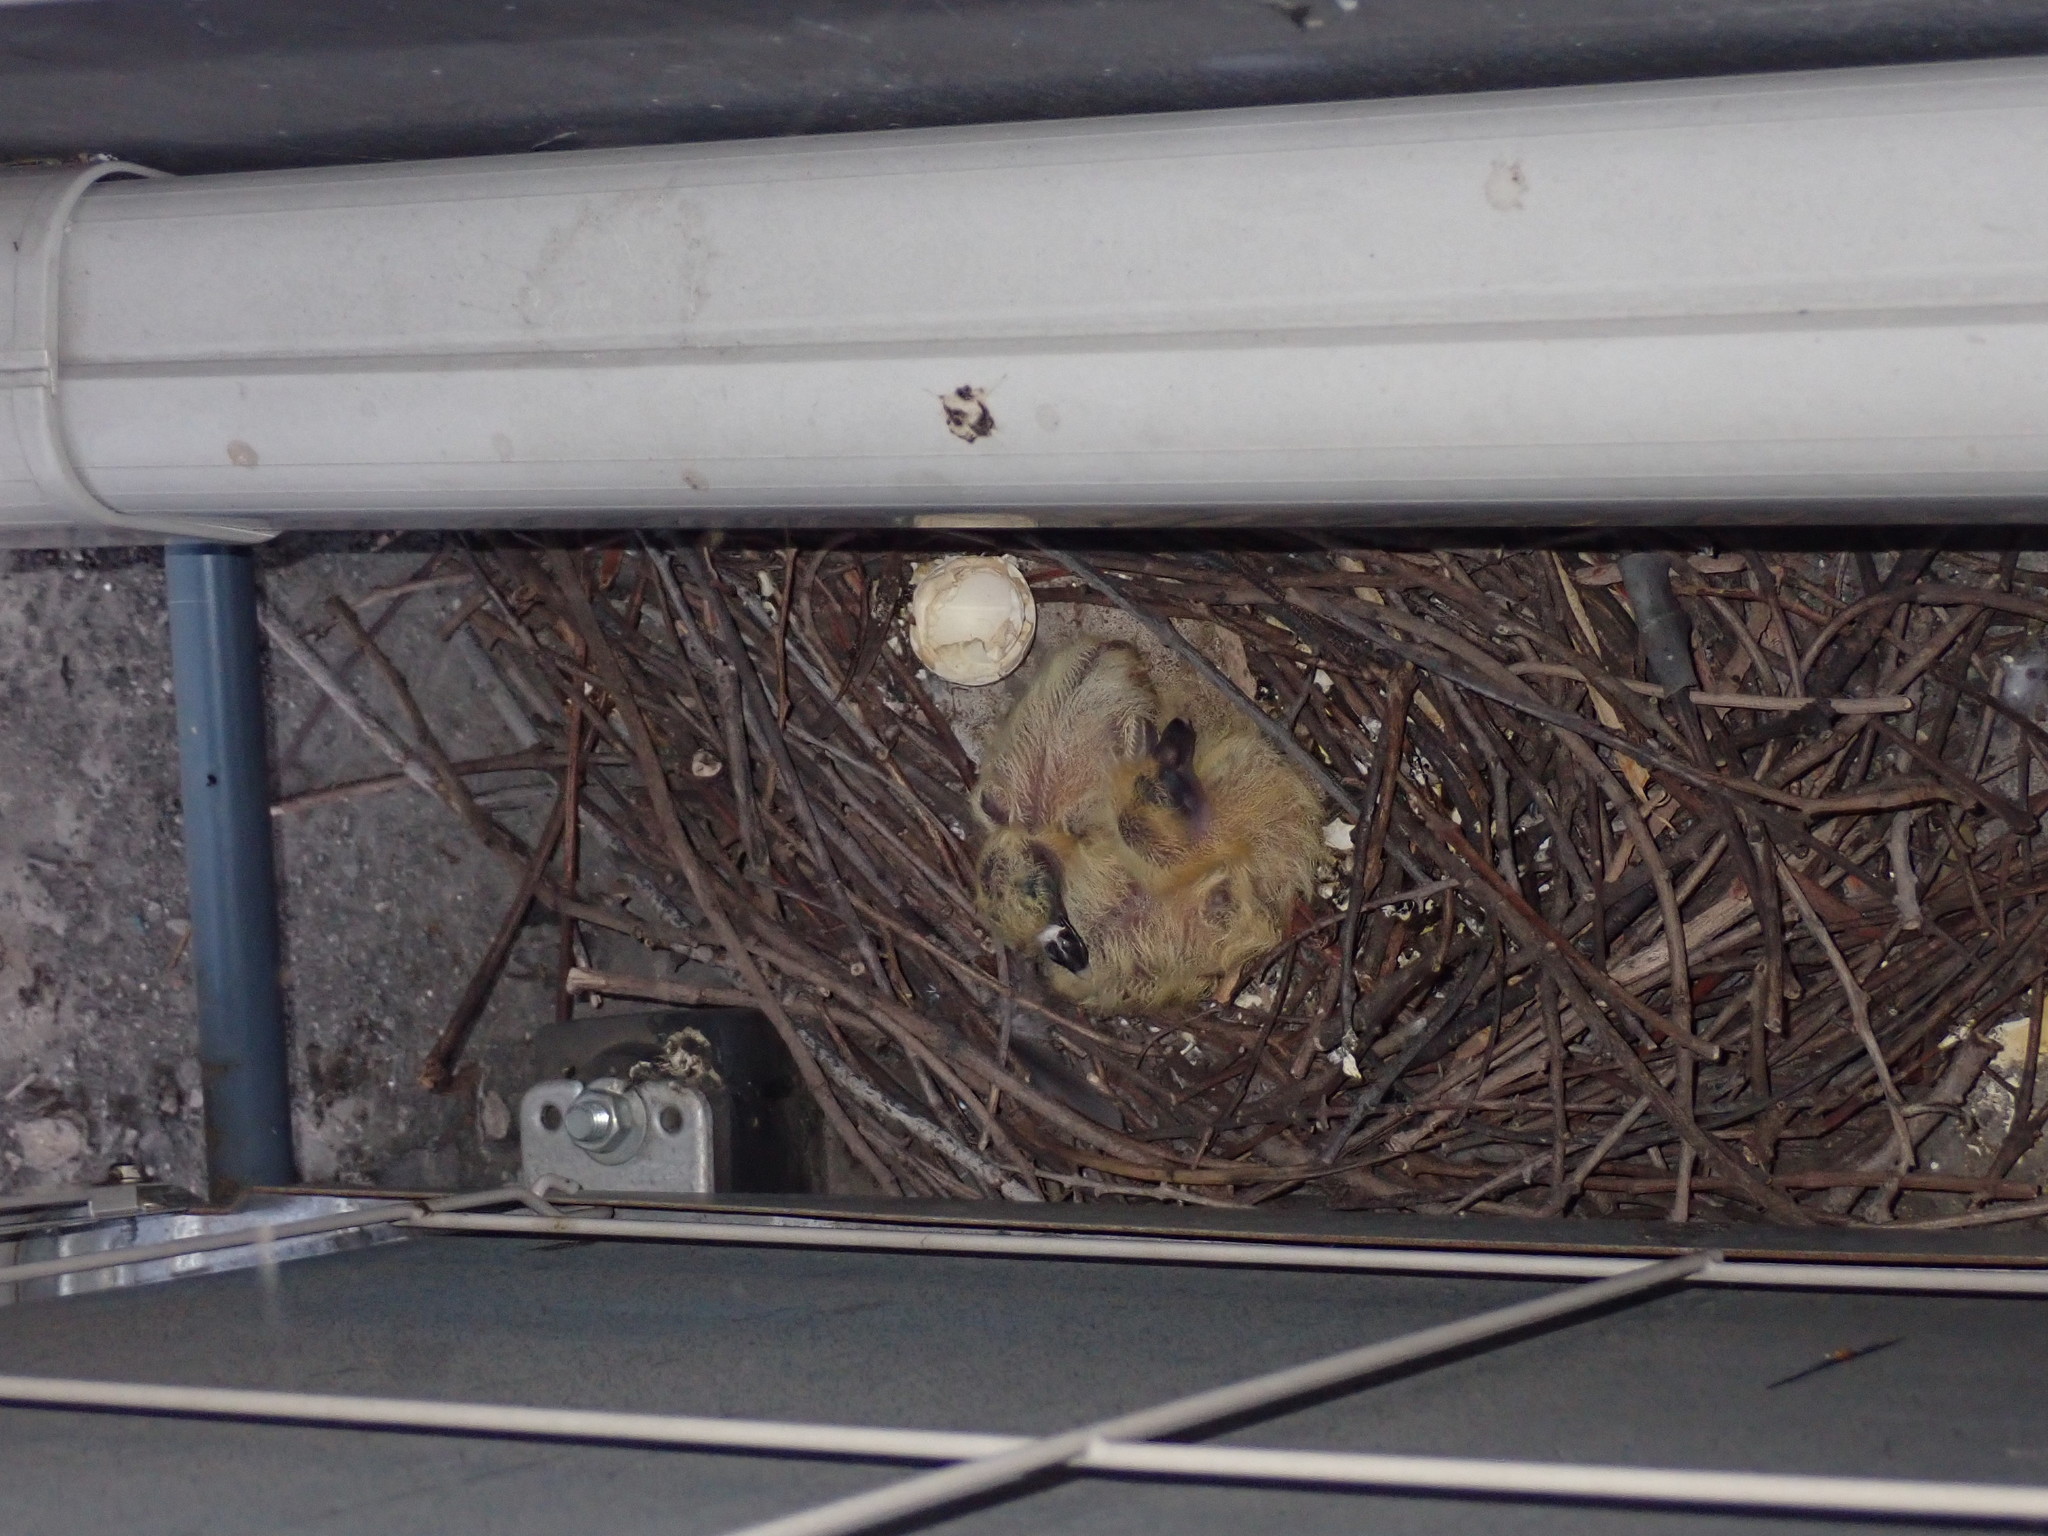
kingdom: Animalia
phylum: Chordata
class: Aves
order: Columbiformes
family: Columbidae
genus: Columba
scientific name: Columba livia
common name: Rock pigeon
